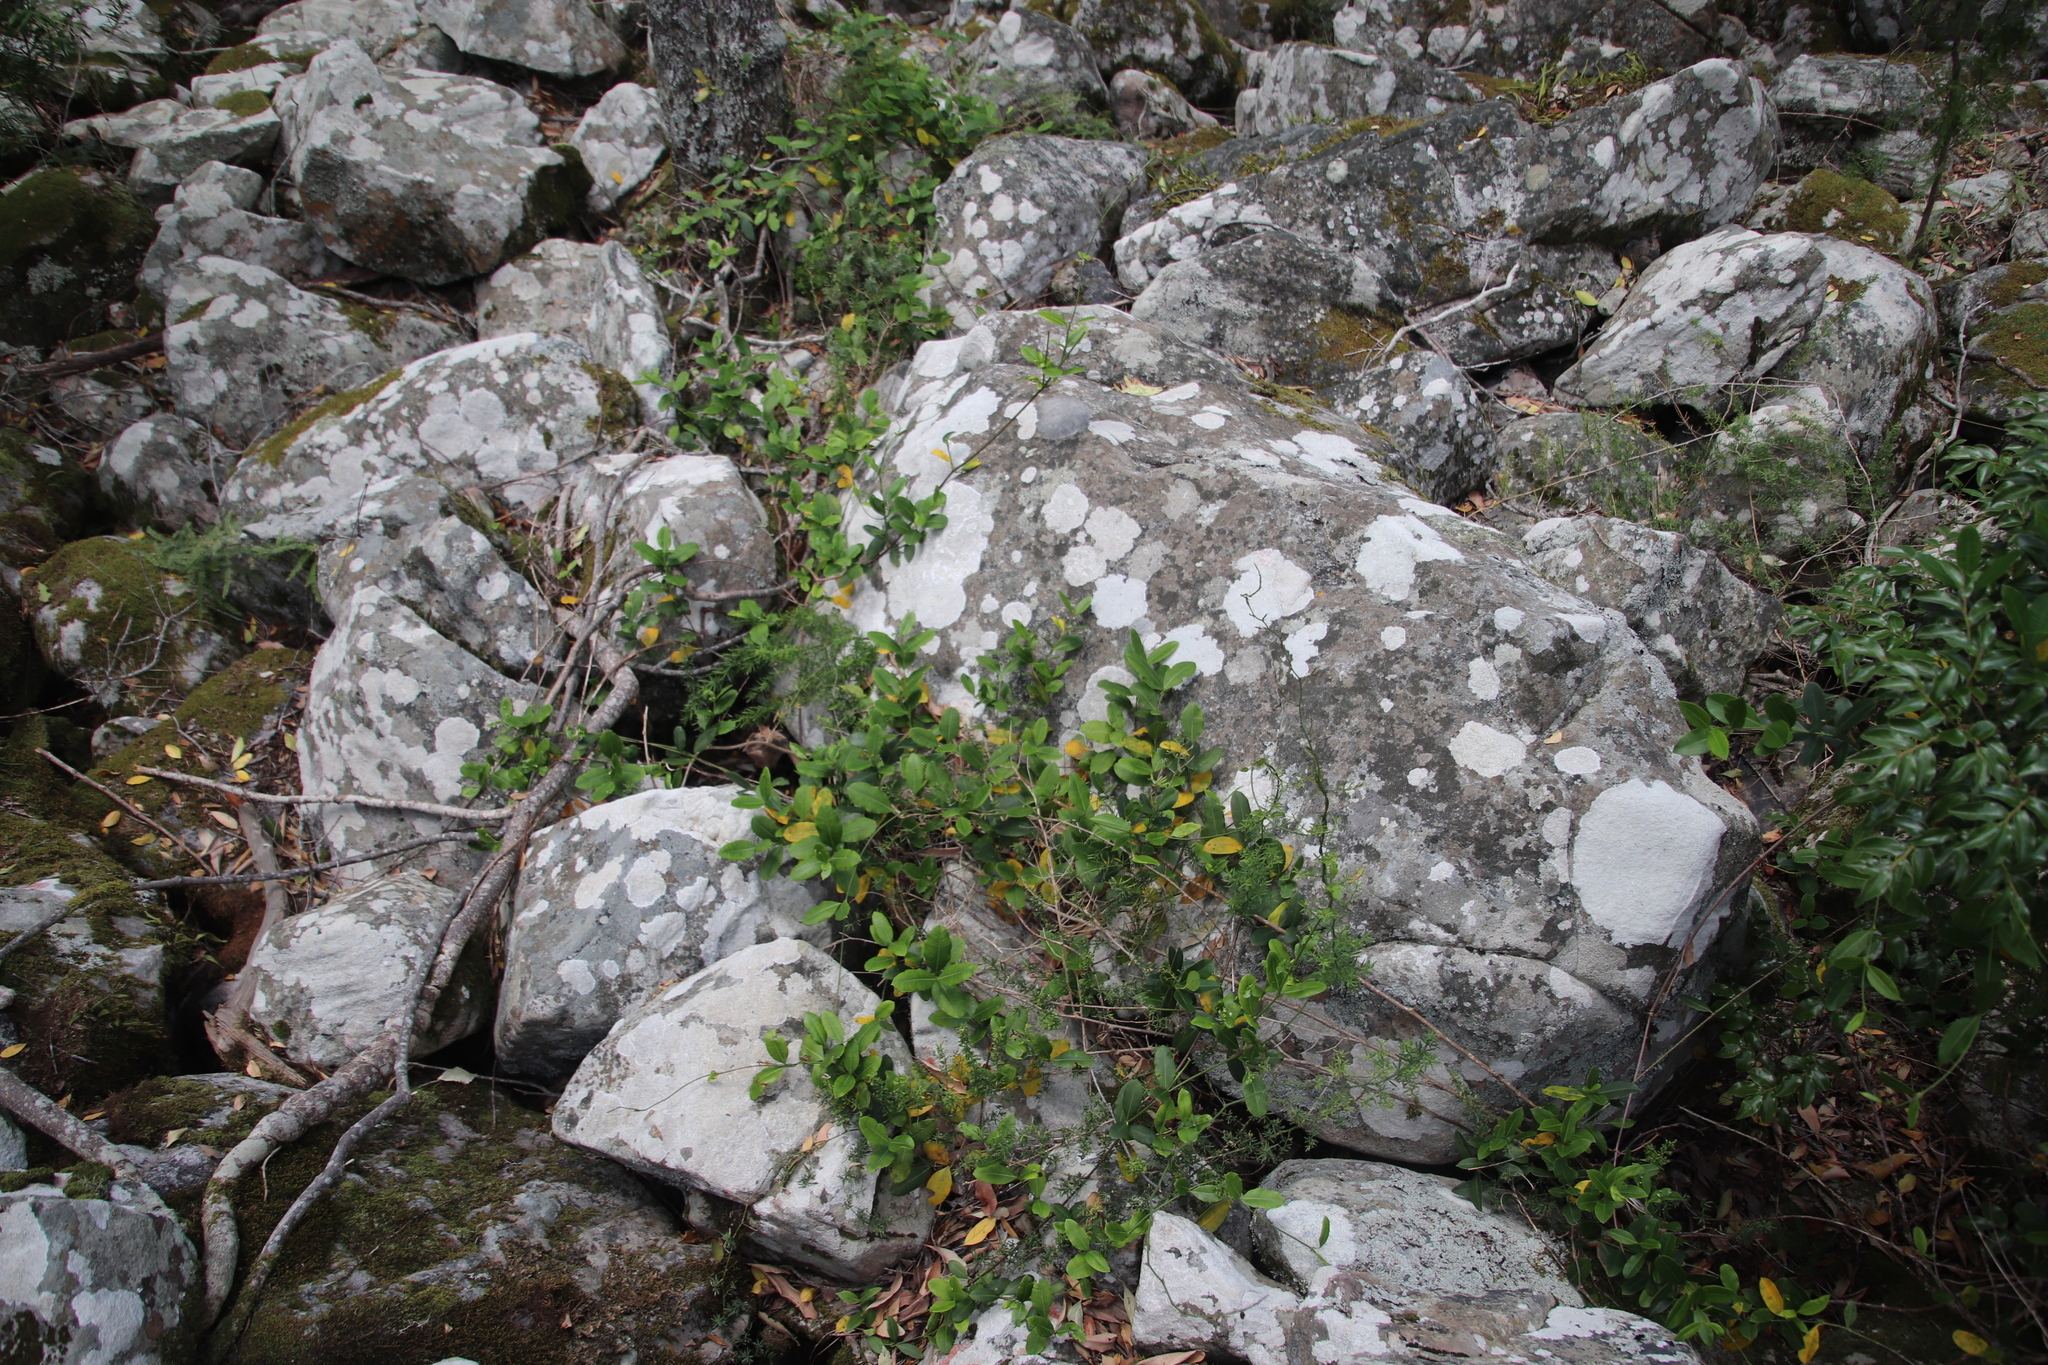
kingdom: Plantae
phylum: Tracheophyta
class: Magnoliopsida
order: Gentianales
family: Apocynaceae
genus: Secamone
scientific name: Secamone alpini
